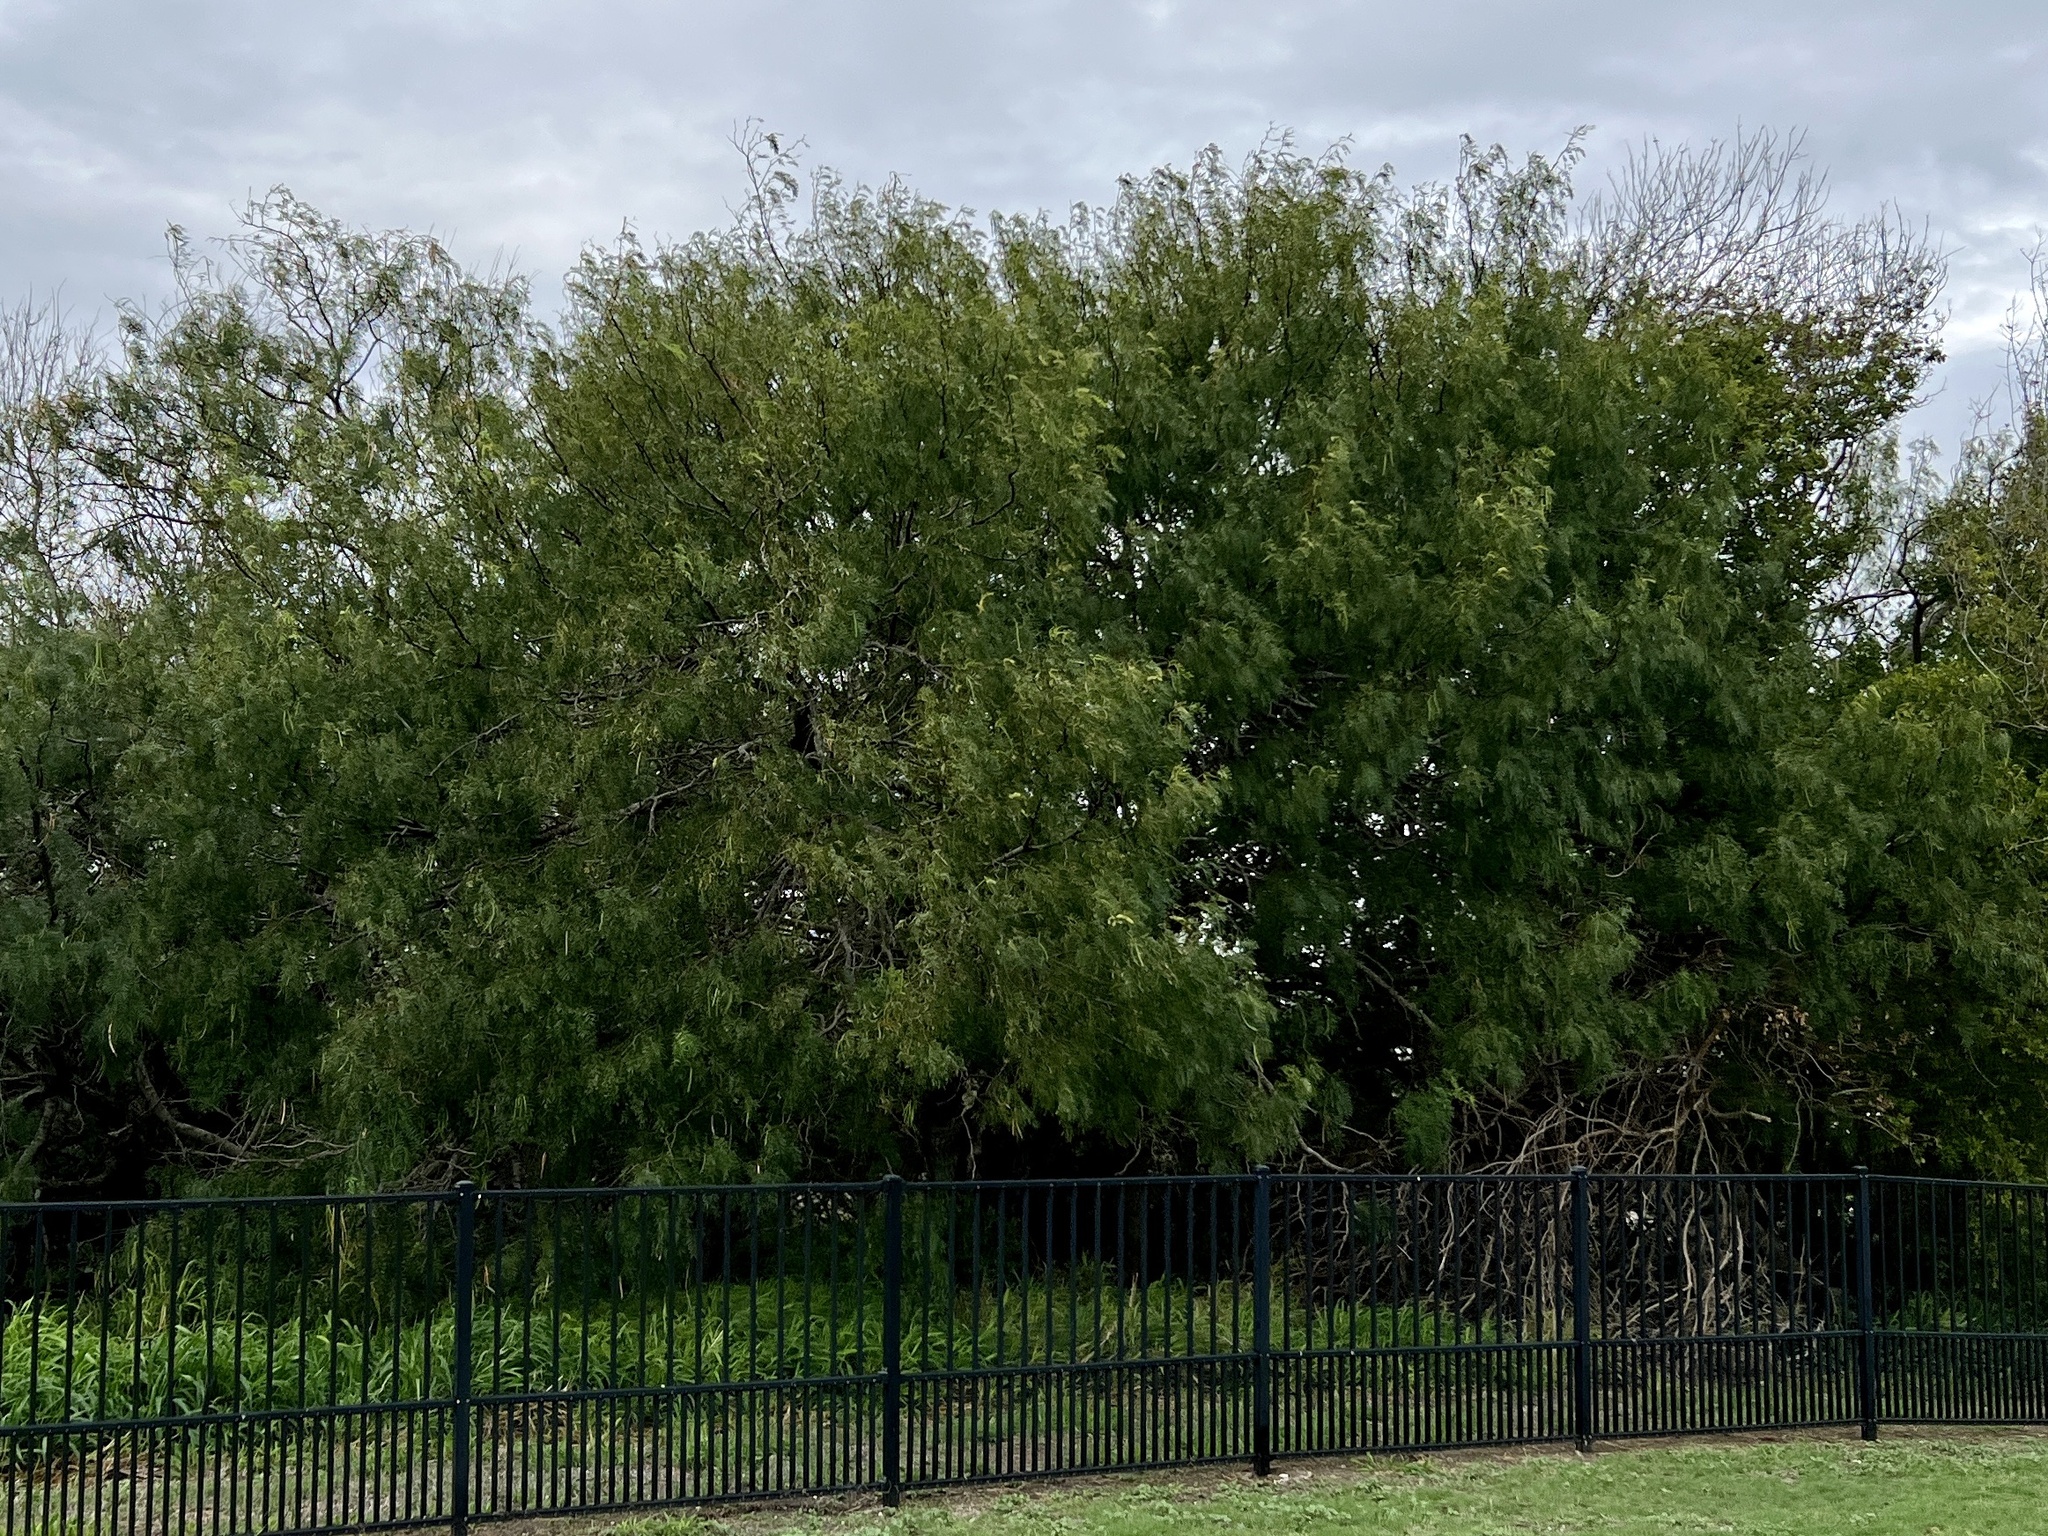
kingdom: Plantae
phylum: Tracheophyta
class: Magnoliopsida
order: Fabales
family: Fabaceae
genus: Prosopis
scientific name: Prosopis glandulosa
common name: Honey mesquite
